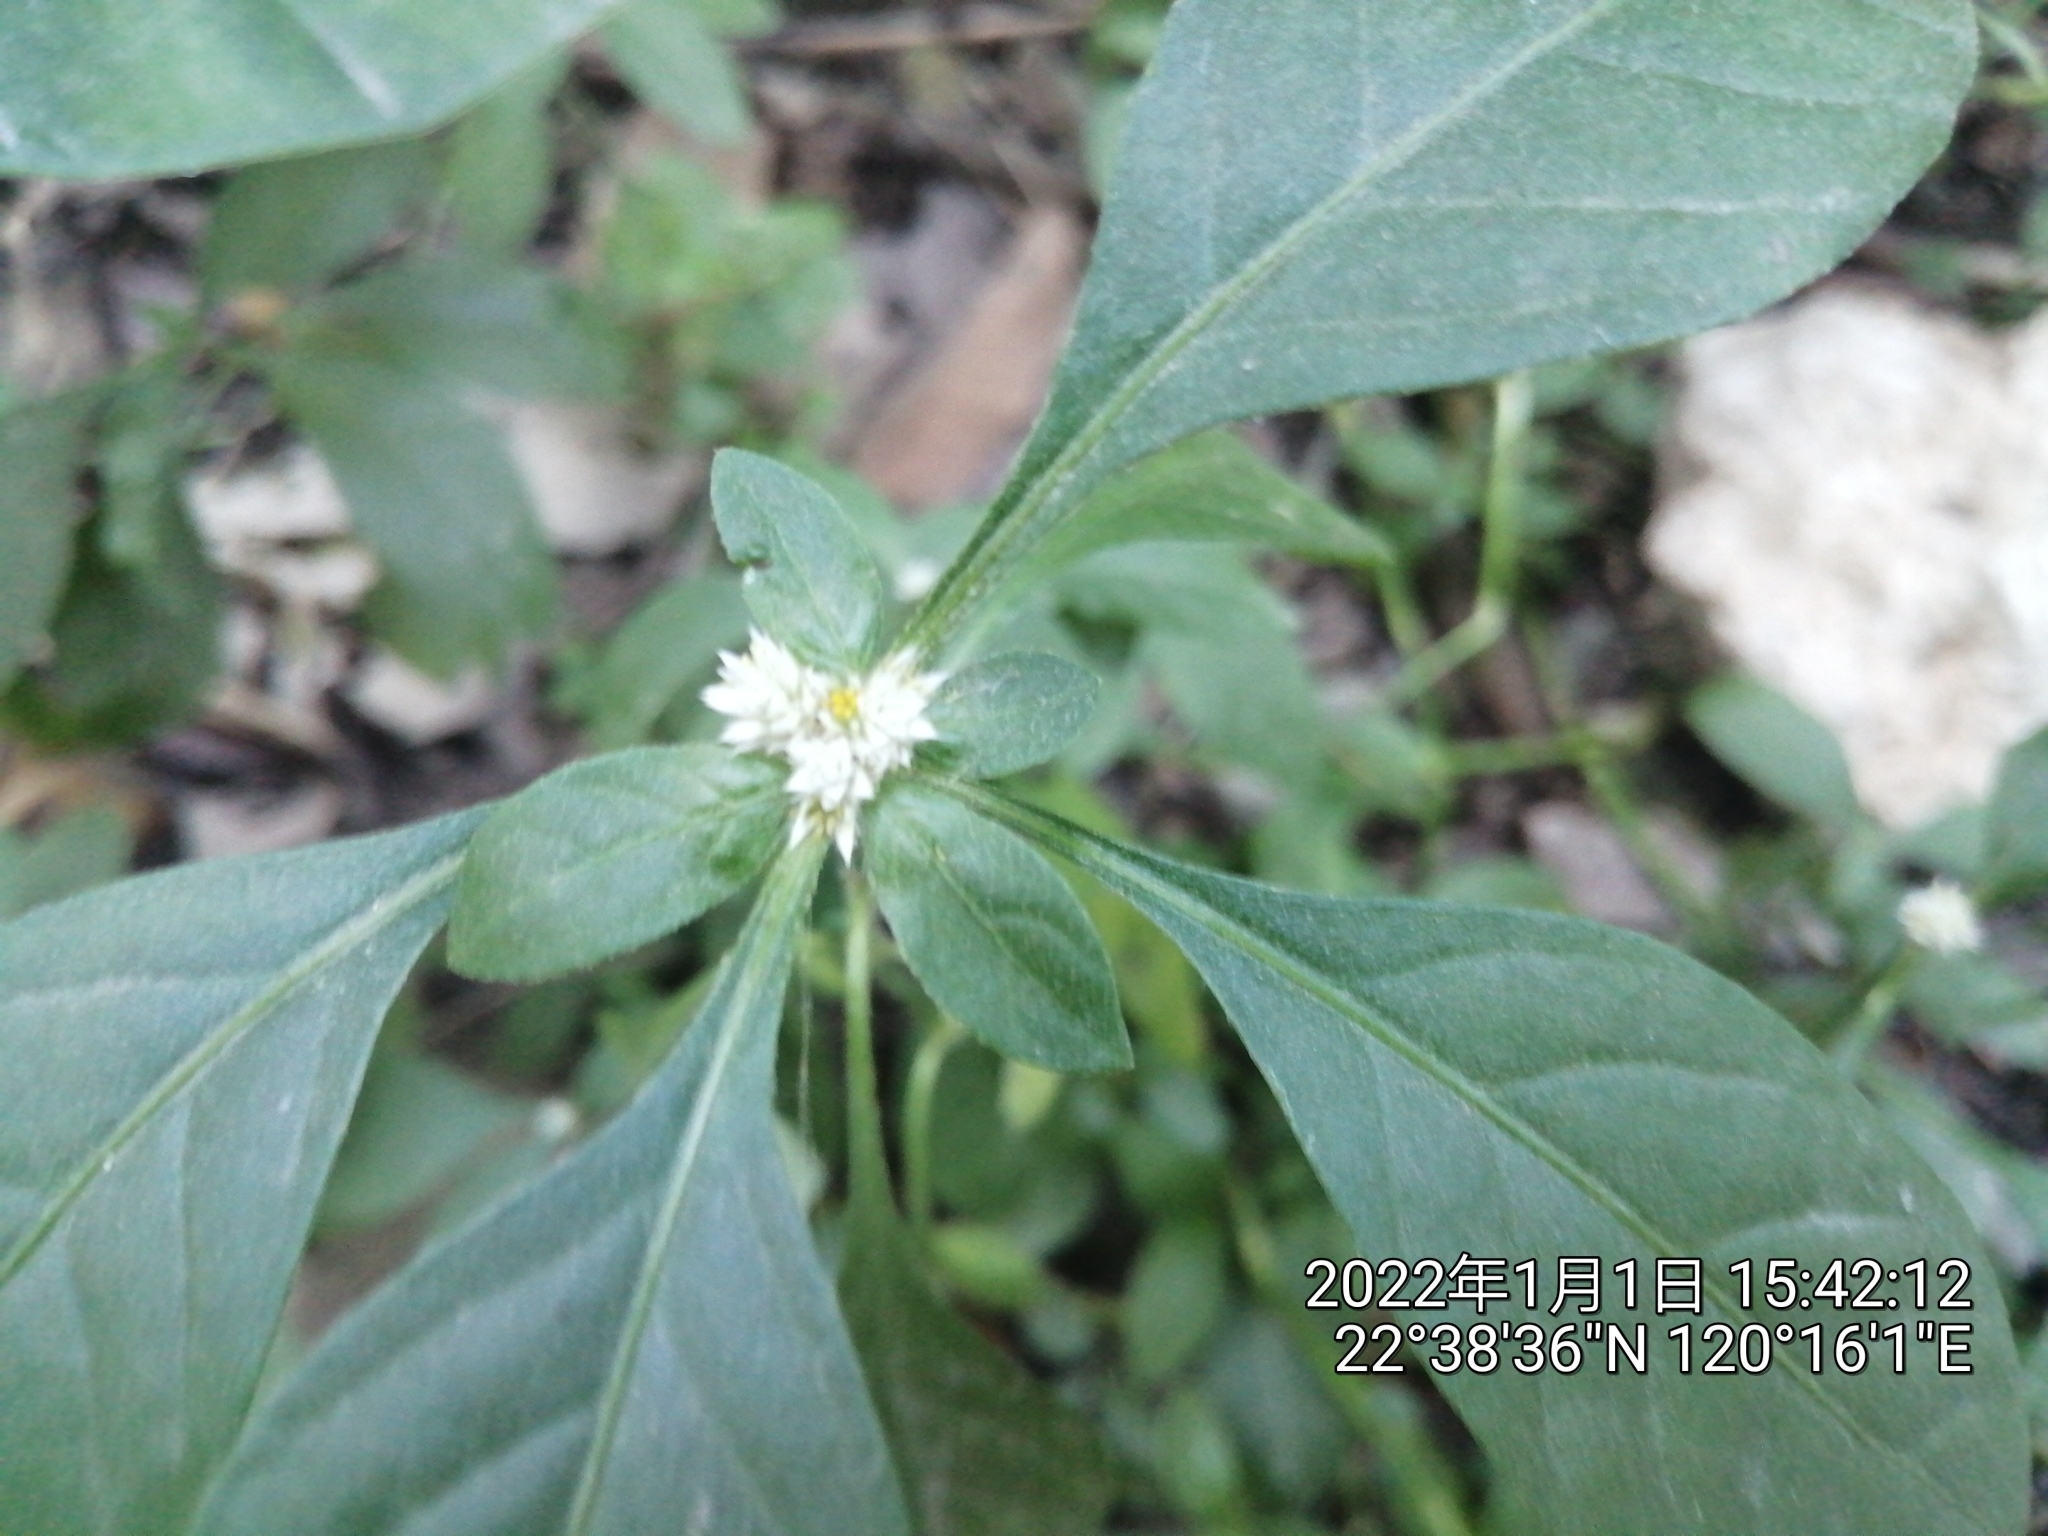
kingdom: Plantae
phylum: Tracheophyta
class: Magnoliopsida
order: Caryophyllales
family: Amaranthaceae
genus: Alternanthera
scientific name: Alternanthera bettzickiana
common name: Calico-plant
